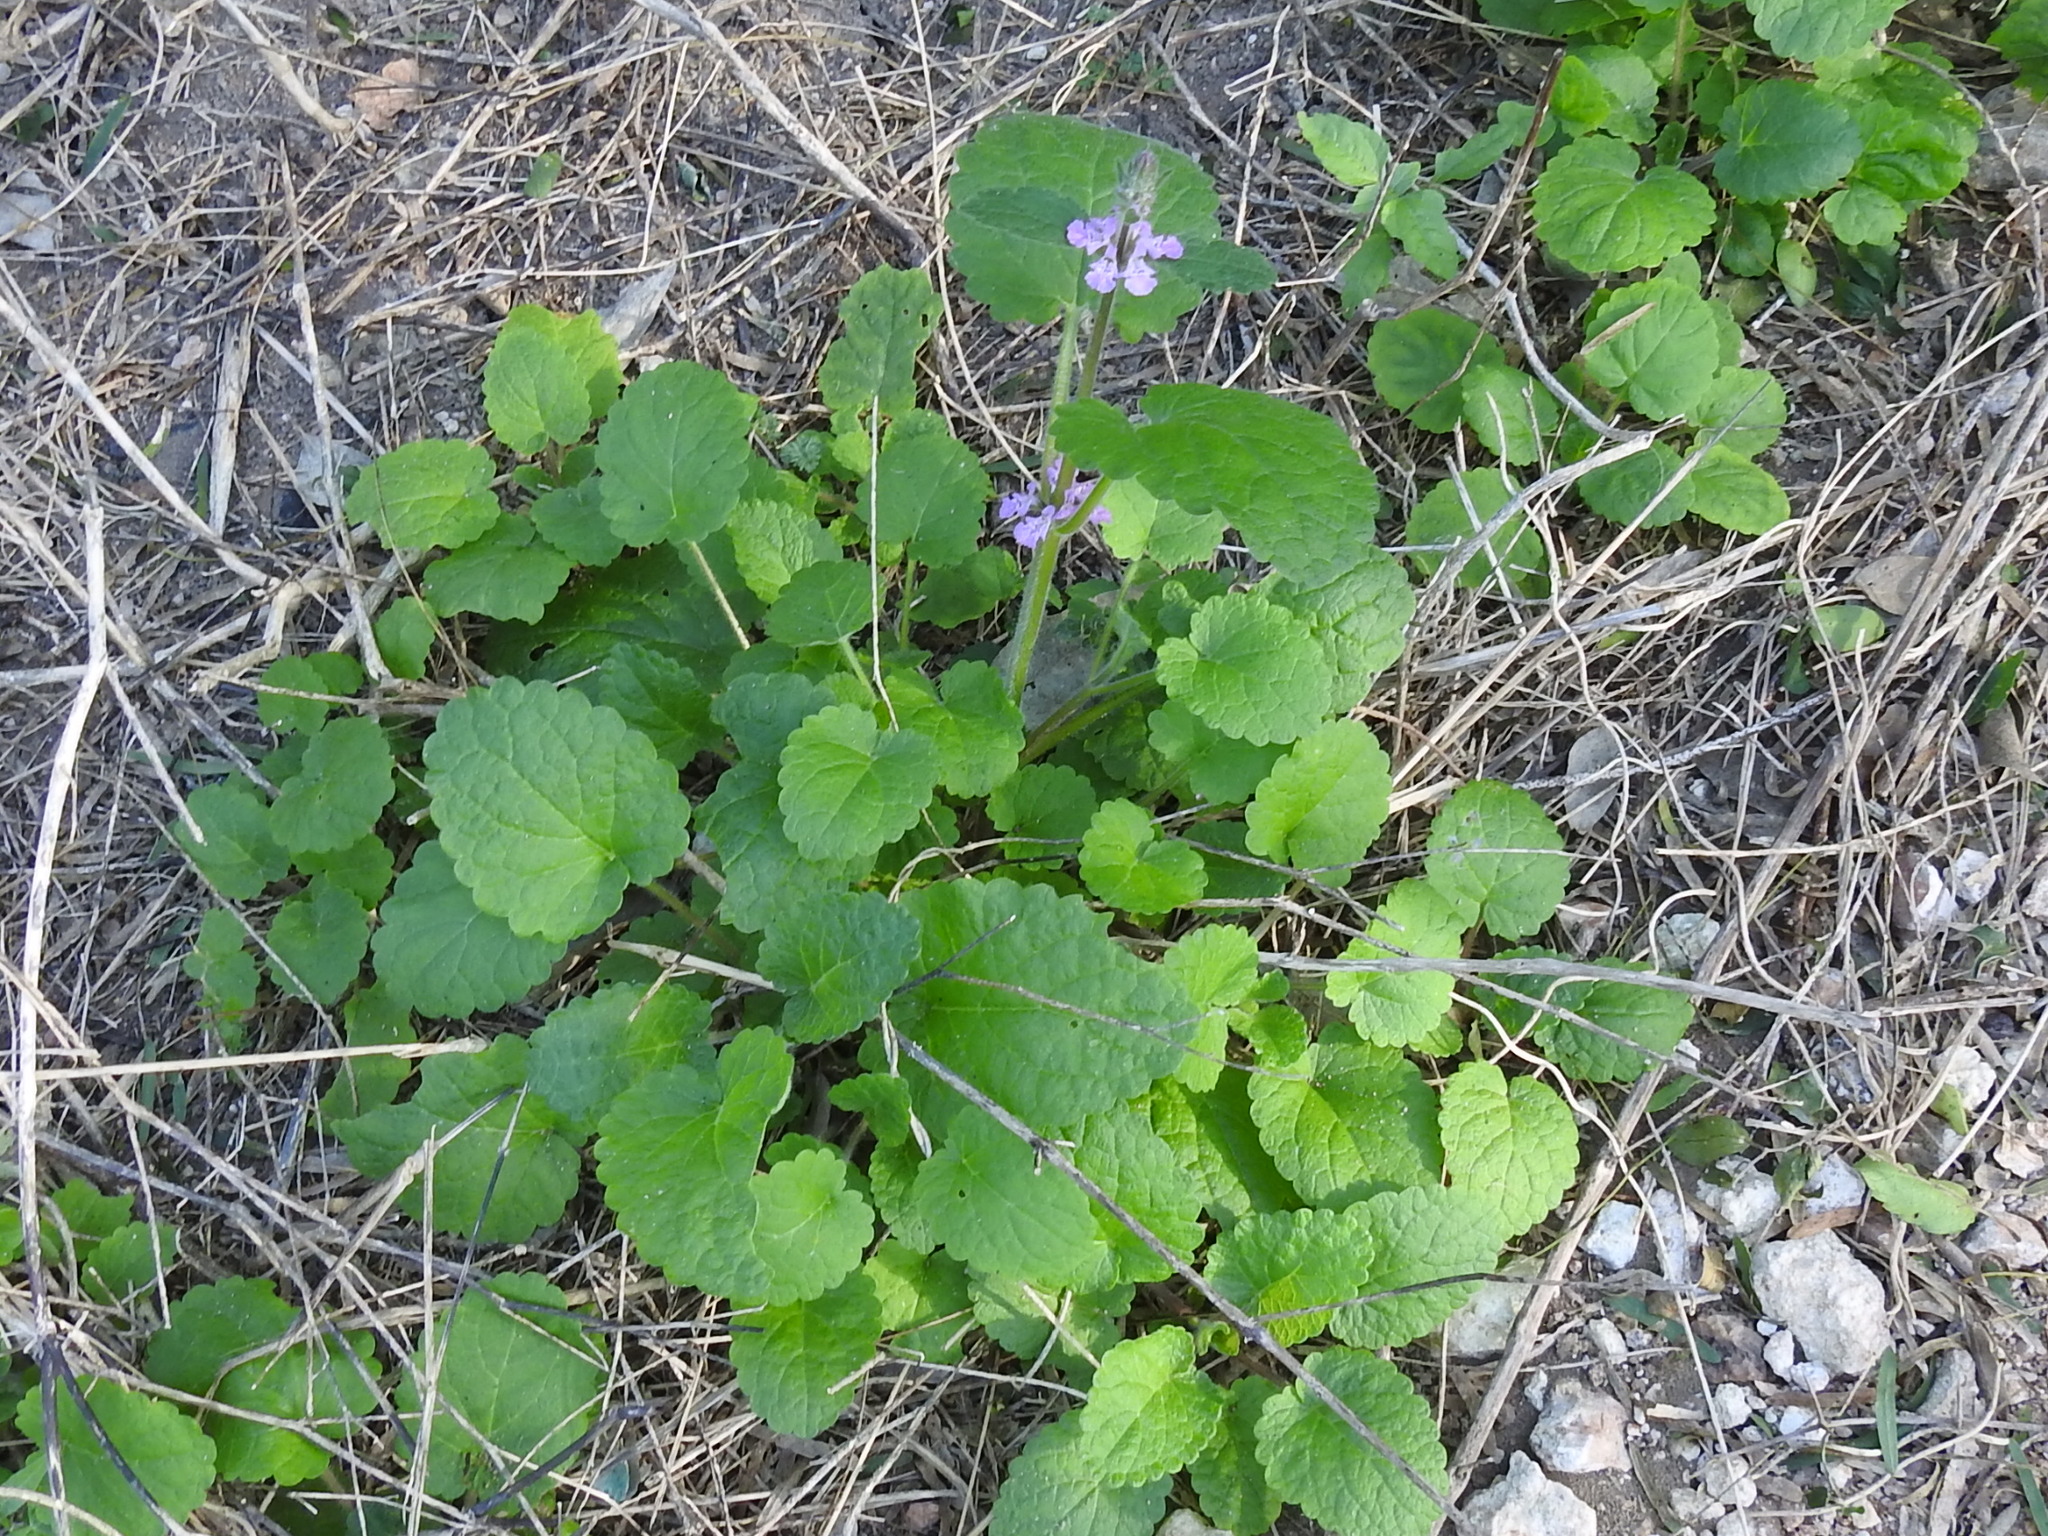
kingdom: Plantae
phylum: Tracheophyta
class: Magnoliopsida
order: Lamiales
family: Lamiaceae
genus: Stachys
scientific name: Stachys drummondii
